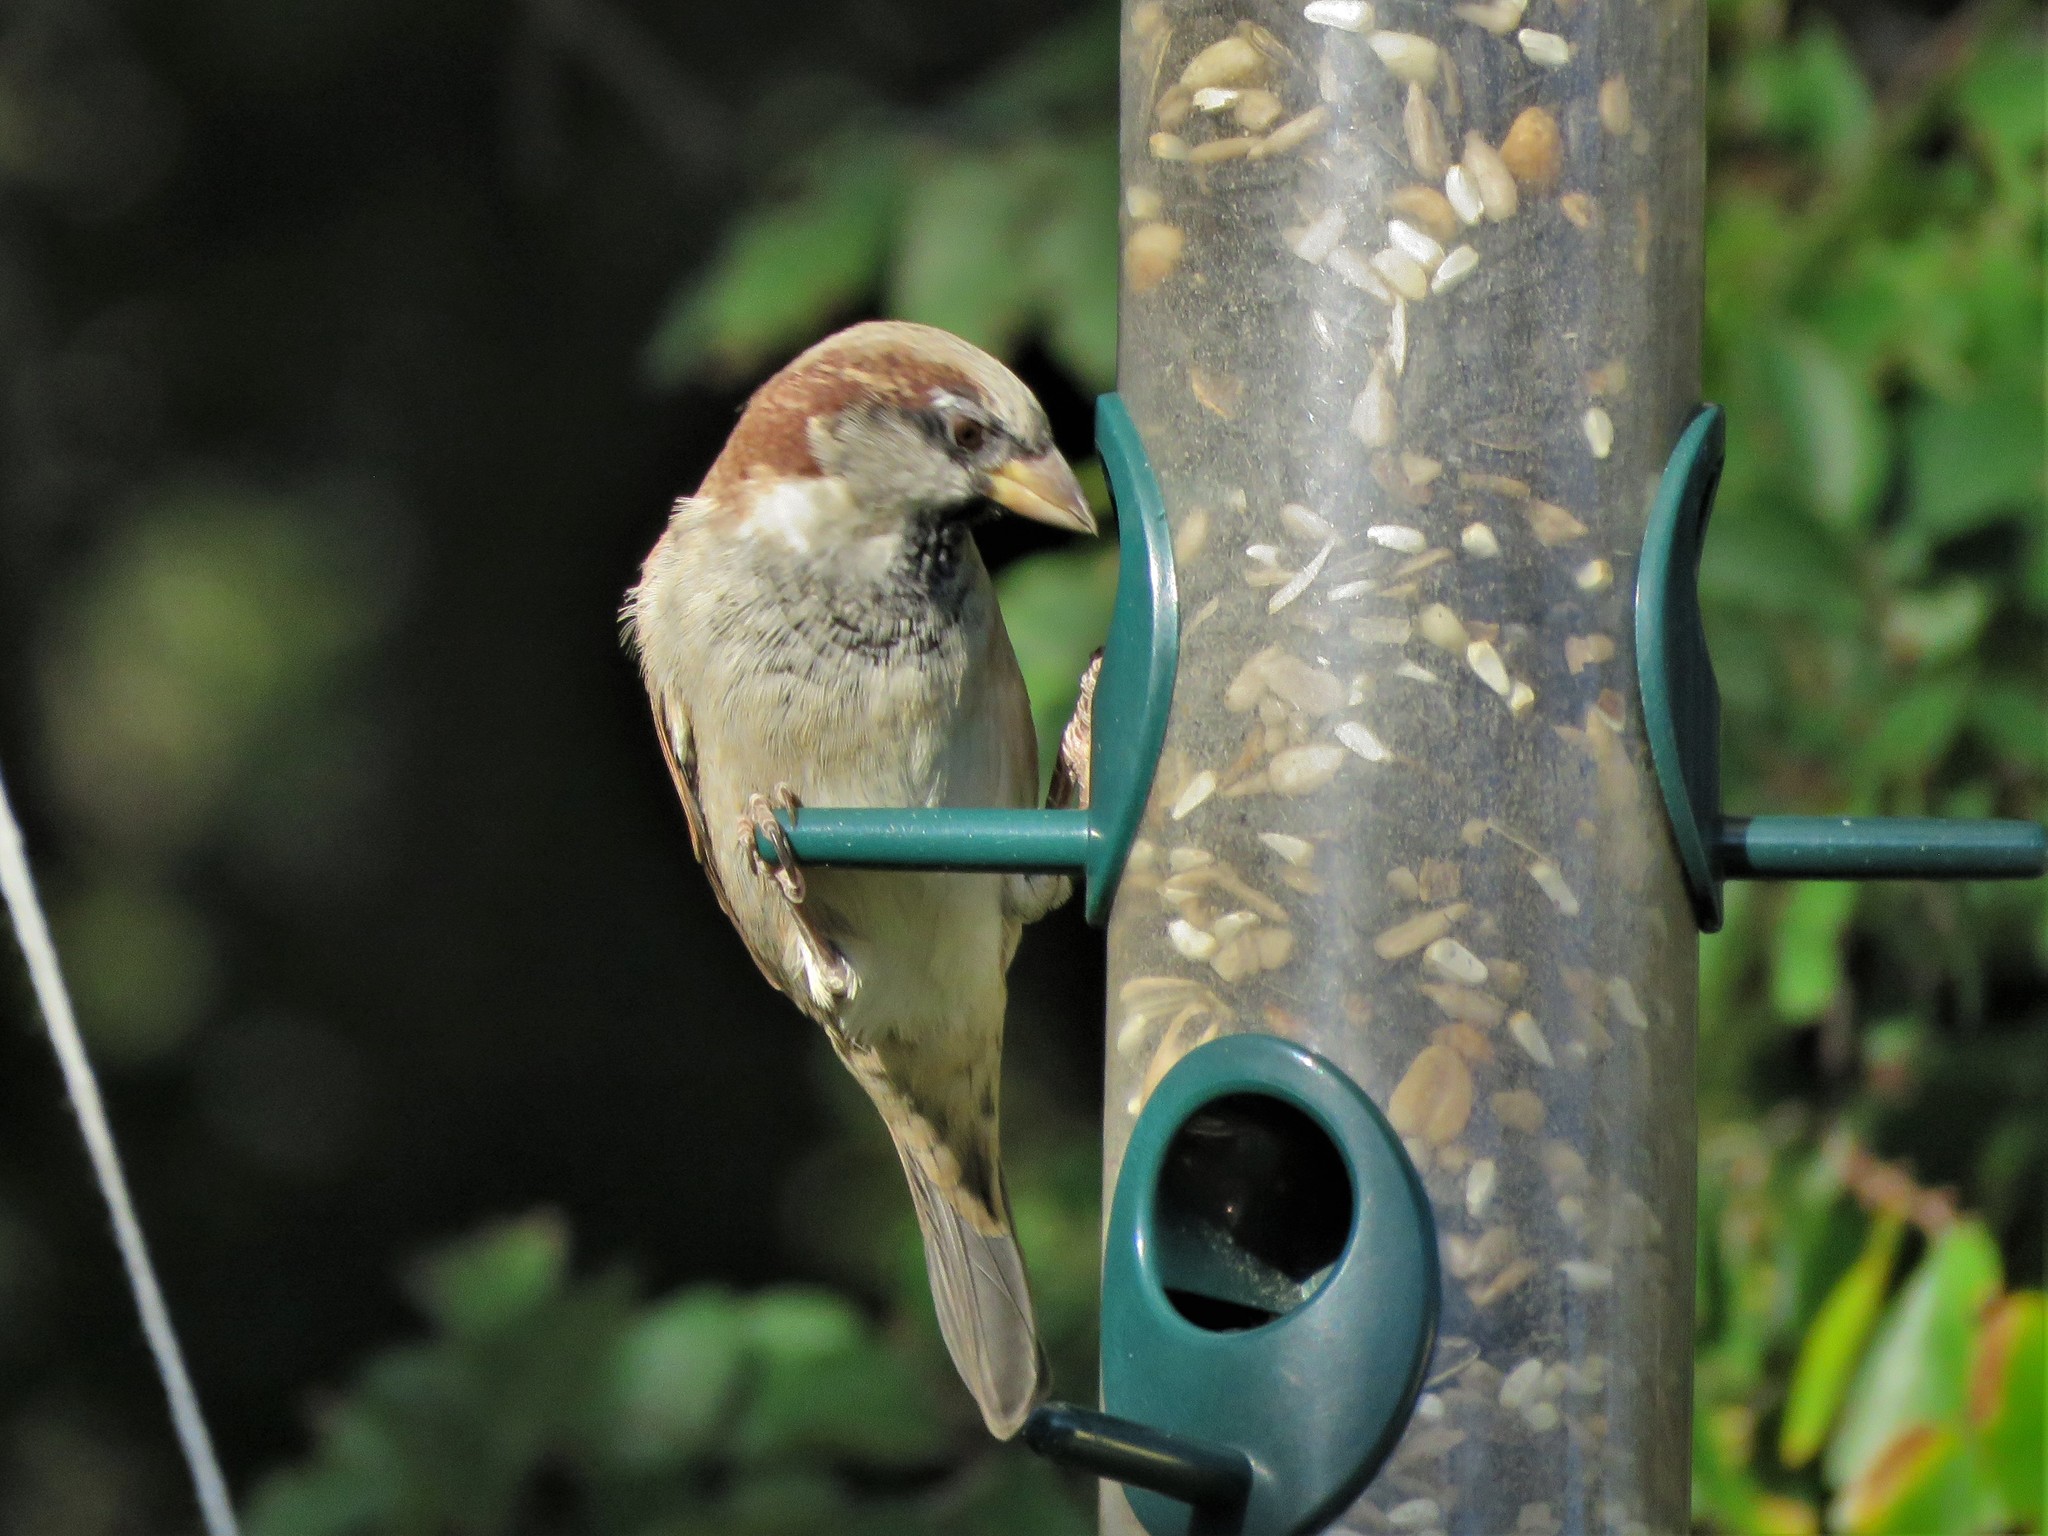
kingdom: Animalia
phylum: Chordata
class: Aves
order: Passeriformes
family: Passeridae
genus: Passer
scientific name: Passer domesticus
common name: House sparrow
